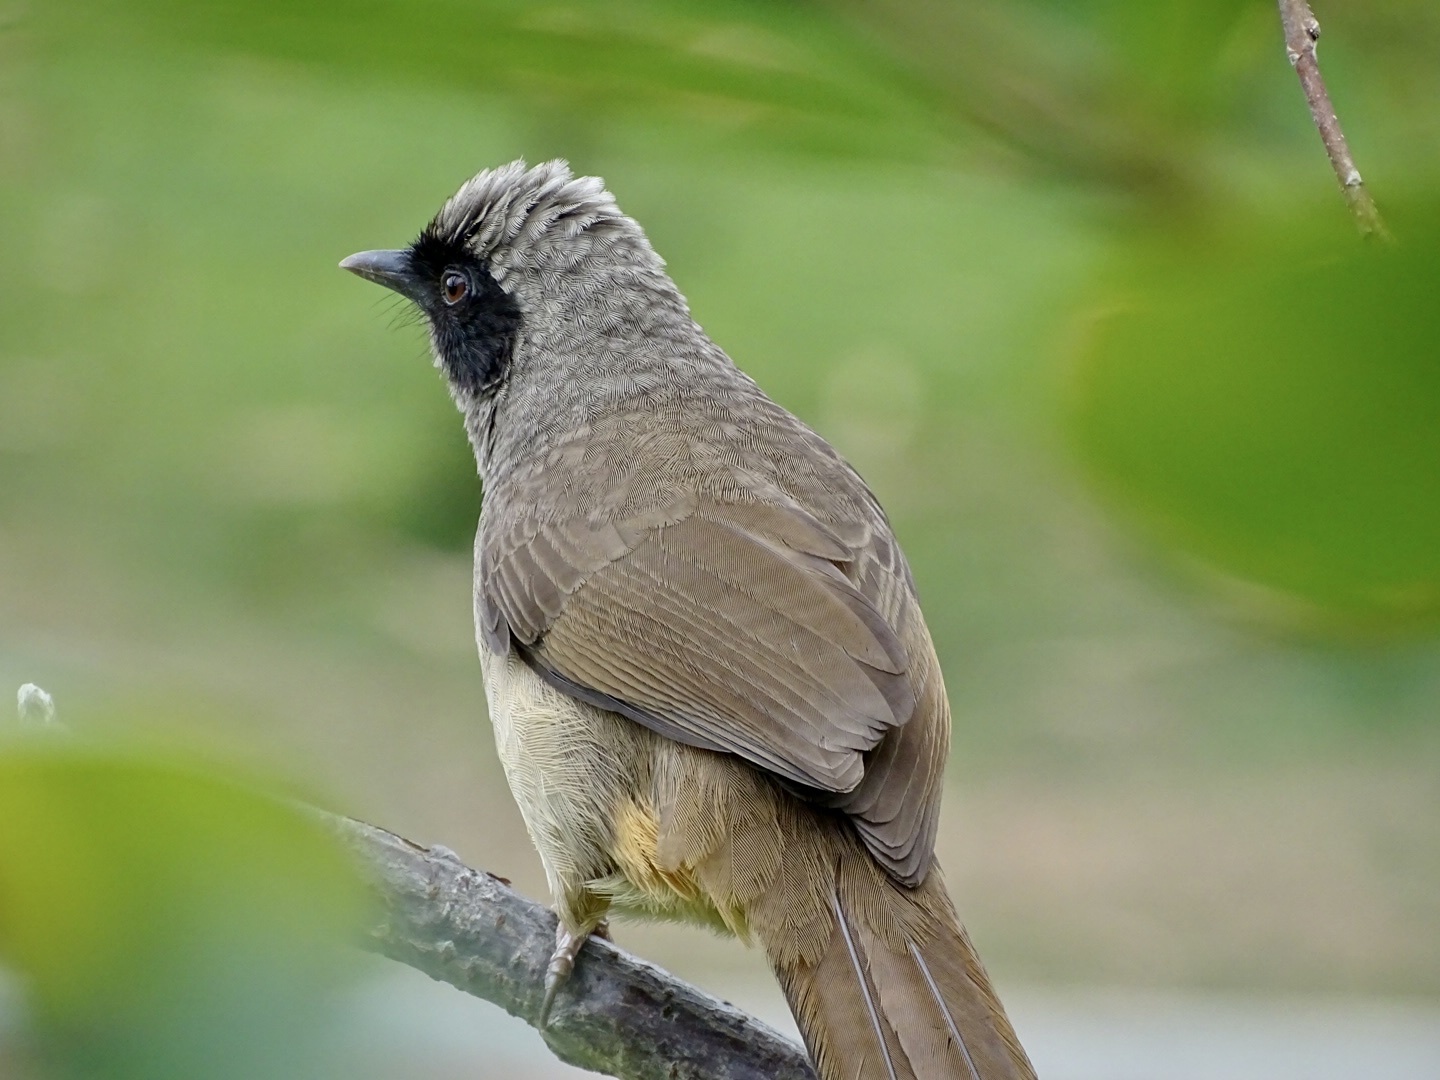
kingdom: Animalia
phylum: Chordata
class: Aves
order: Passeriformes
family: Leiothrichidae
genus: Garrulax
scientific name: Garrulax perspicillatus
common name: Masked laughingthrush
